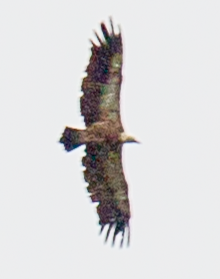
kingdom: Animalia
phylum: Chordata
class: Aves
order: Accipitriformes
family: Accipitridae
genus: Gyps
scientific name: Gyps fulvus
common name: Griffon vulture
